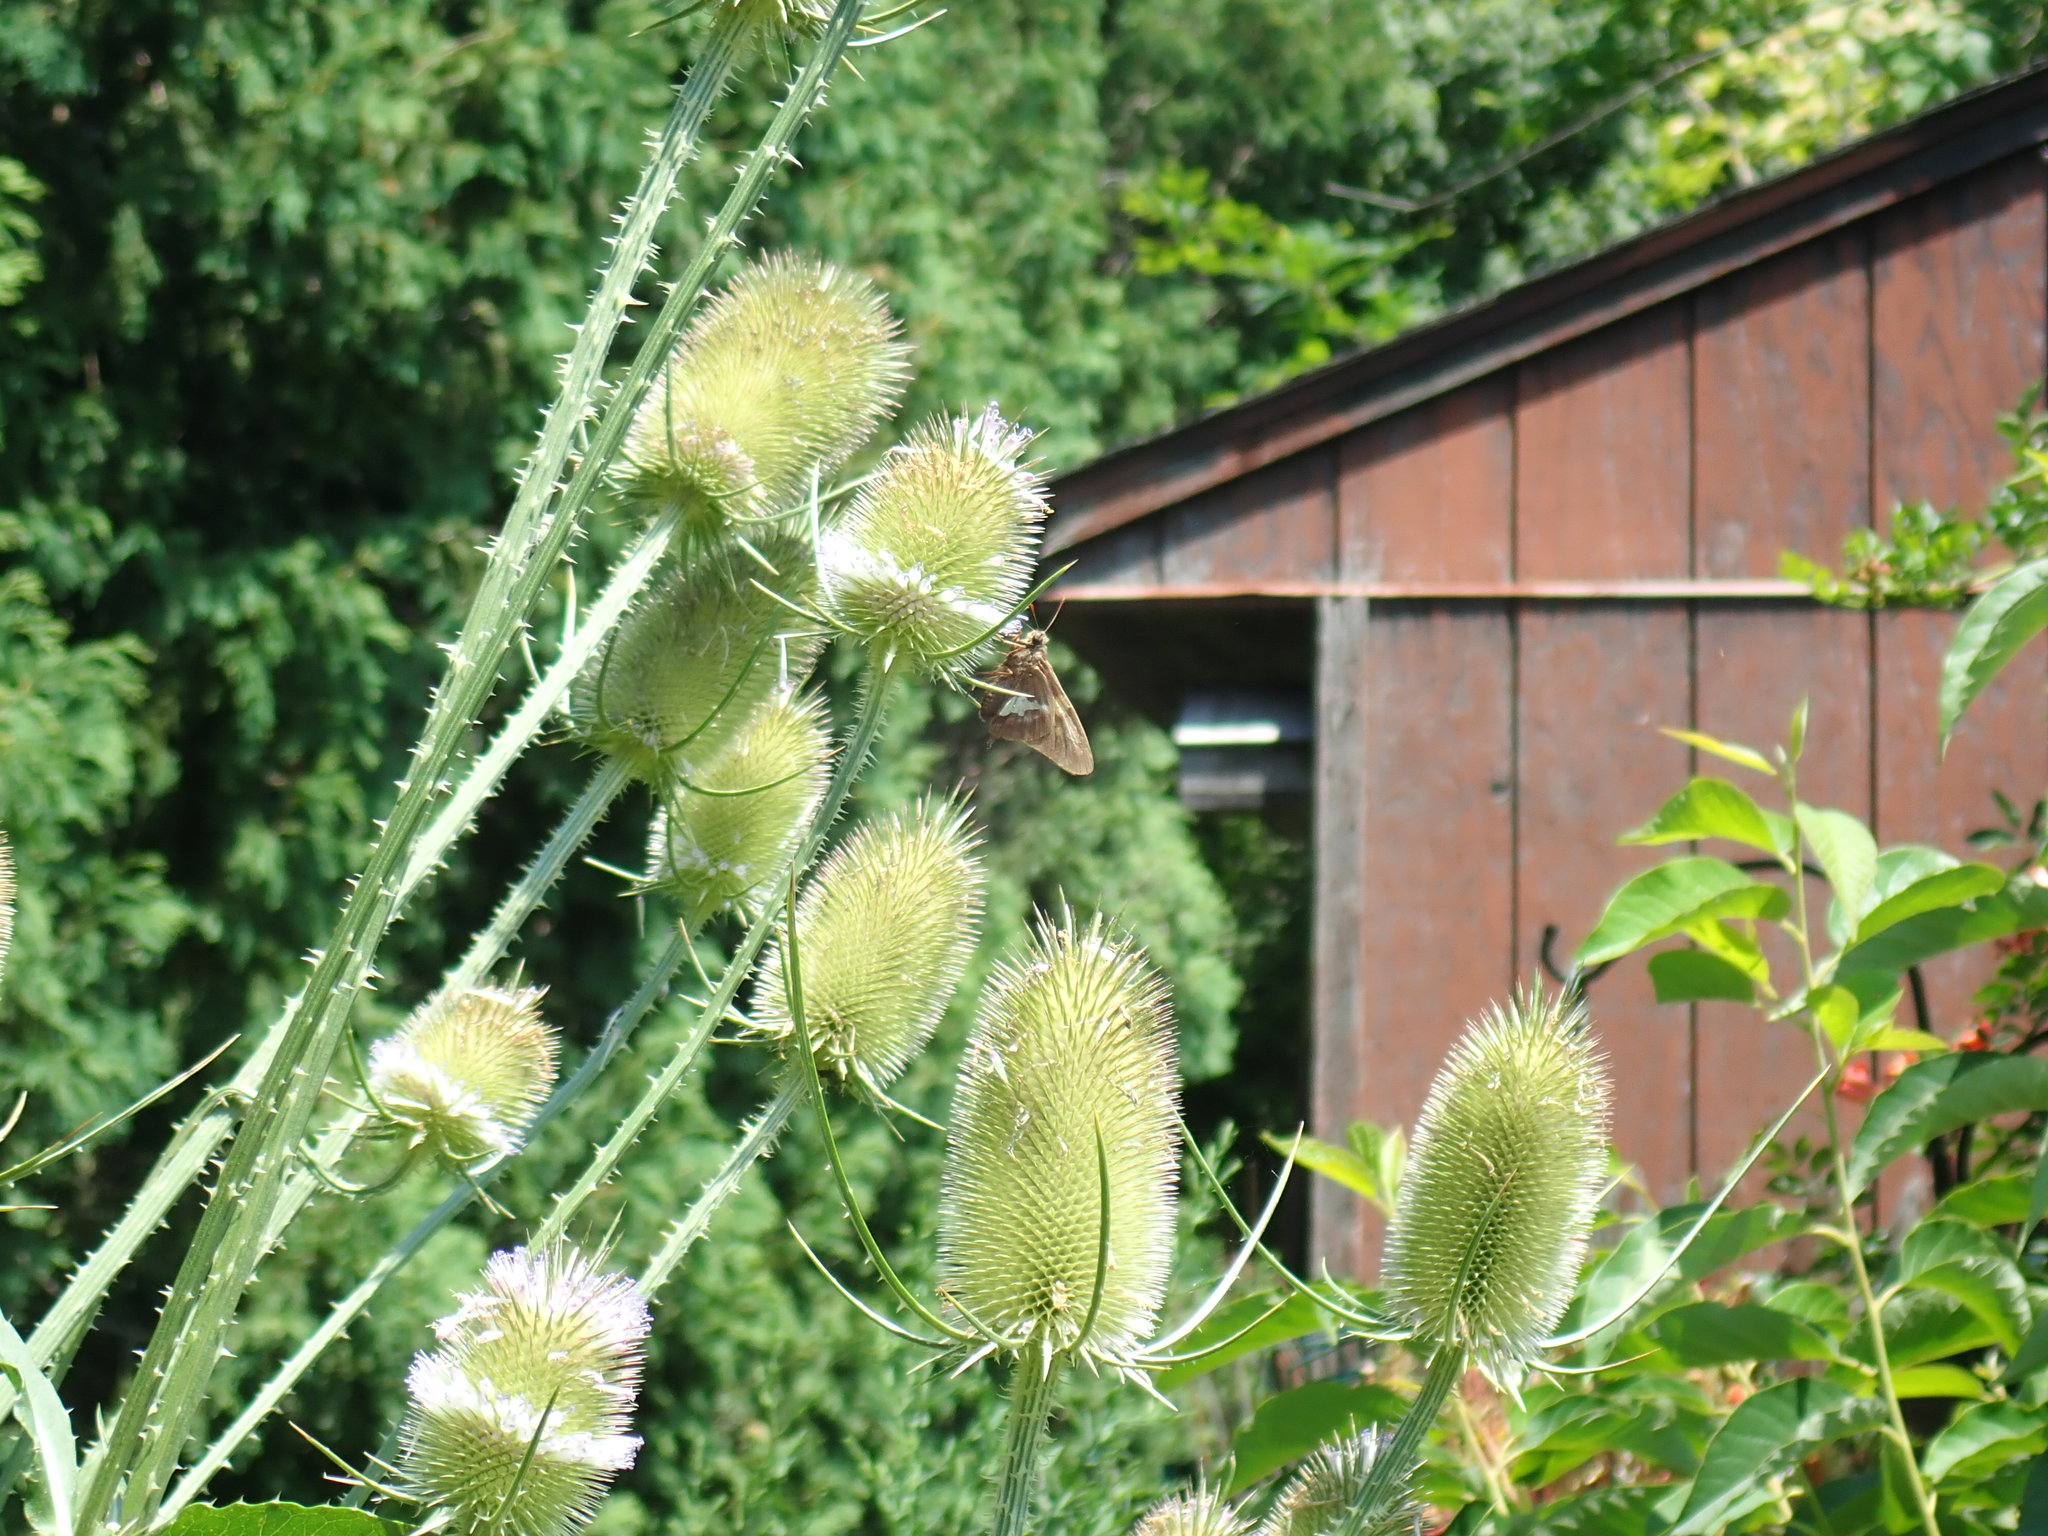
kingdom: Animalia
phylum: Arthropoda
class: Insecta
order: Lepidoptera
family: Hesperiidae
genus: Epargyreus
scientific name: Epargyreus clarus
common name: Silver-spotted skipper
